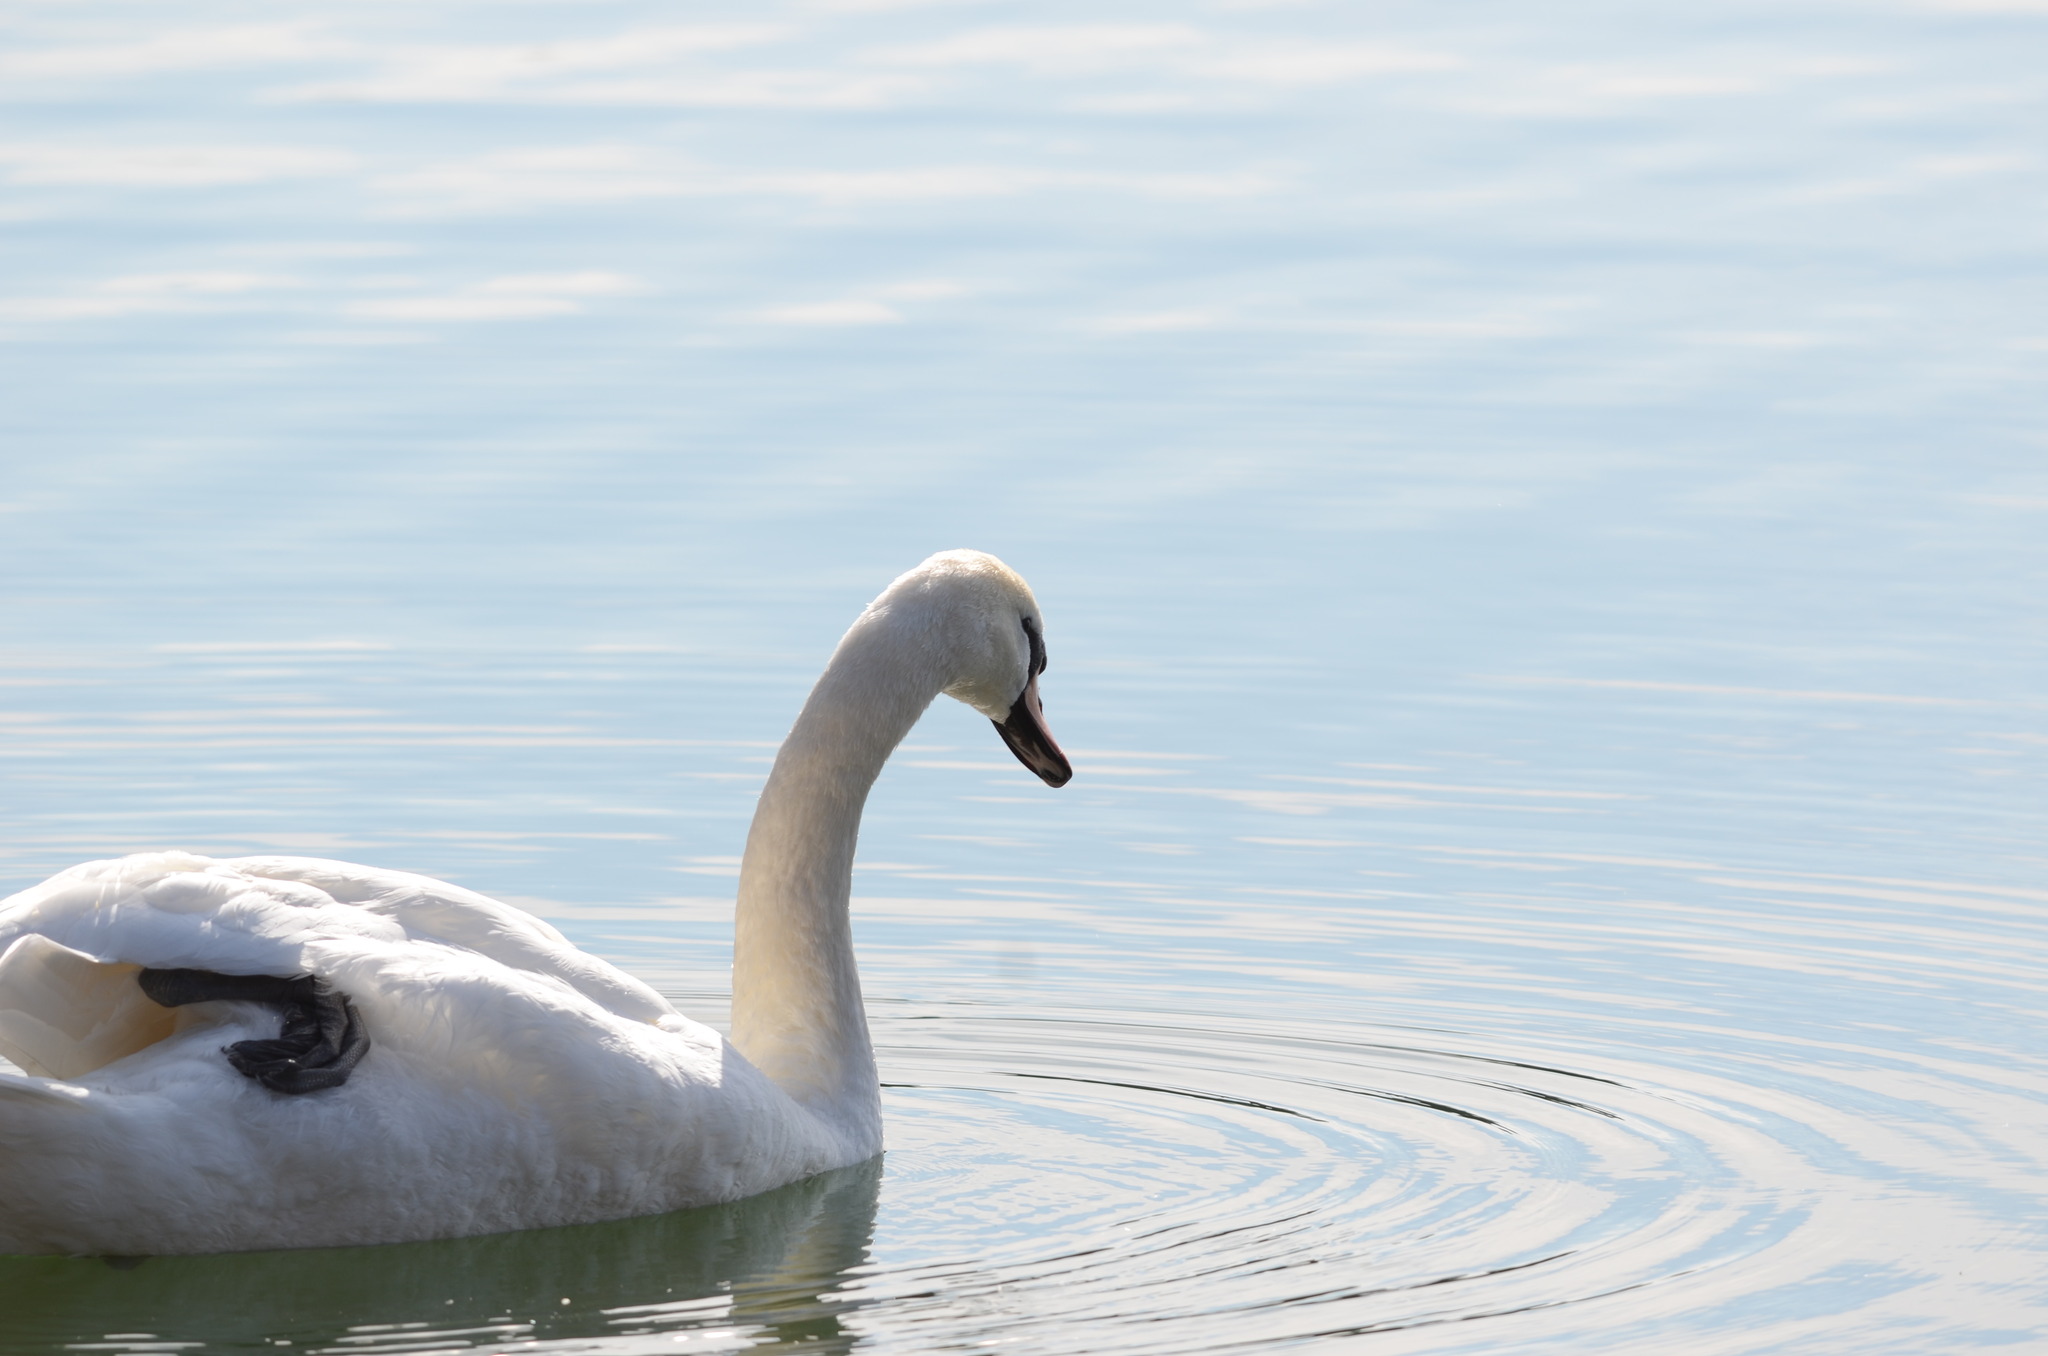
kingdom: Animalia
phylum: Chordata
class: Aves
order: Anseriformes
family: Anatidae
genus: Cygnus
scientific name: Cygnus olor
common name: Mute swan
